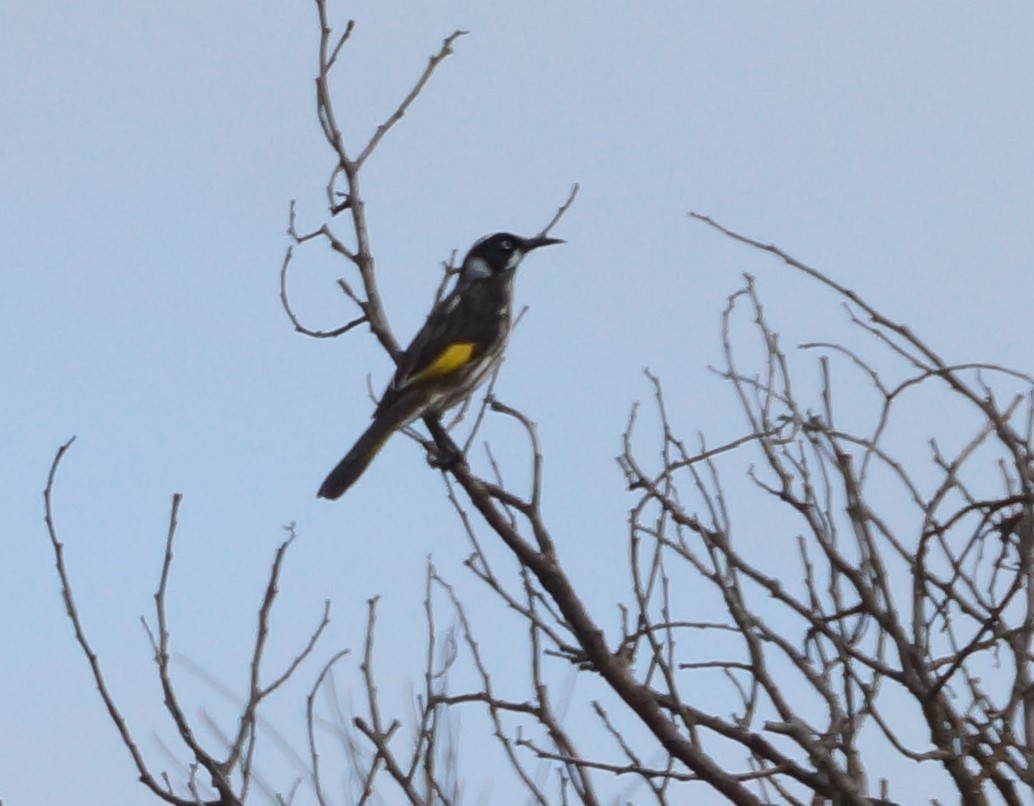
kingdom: Animalia
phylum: Chordata
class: Aves
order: Passeriformes
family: Meliphagidae
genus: Phylidonyris
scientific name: Phylidonyris novaehollandiae
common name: New holland honeyeater
